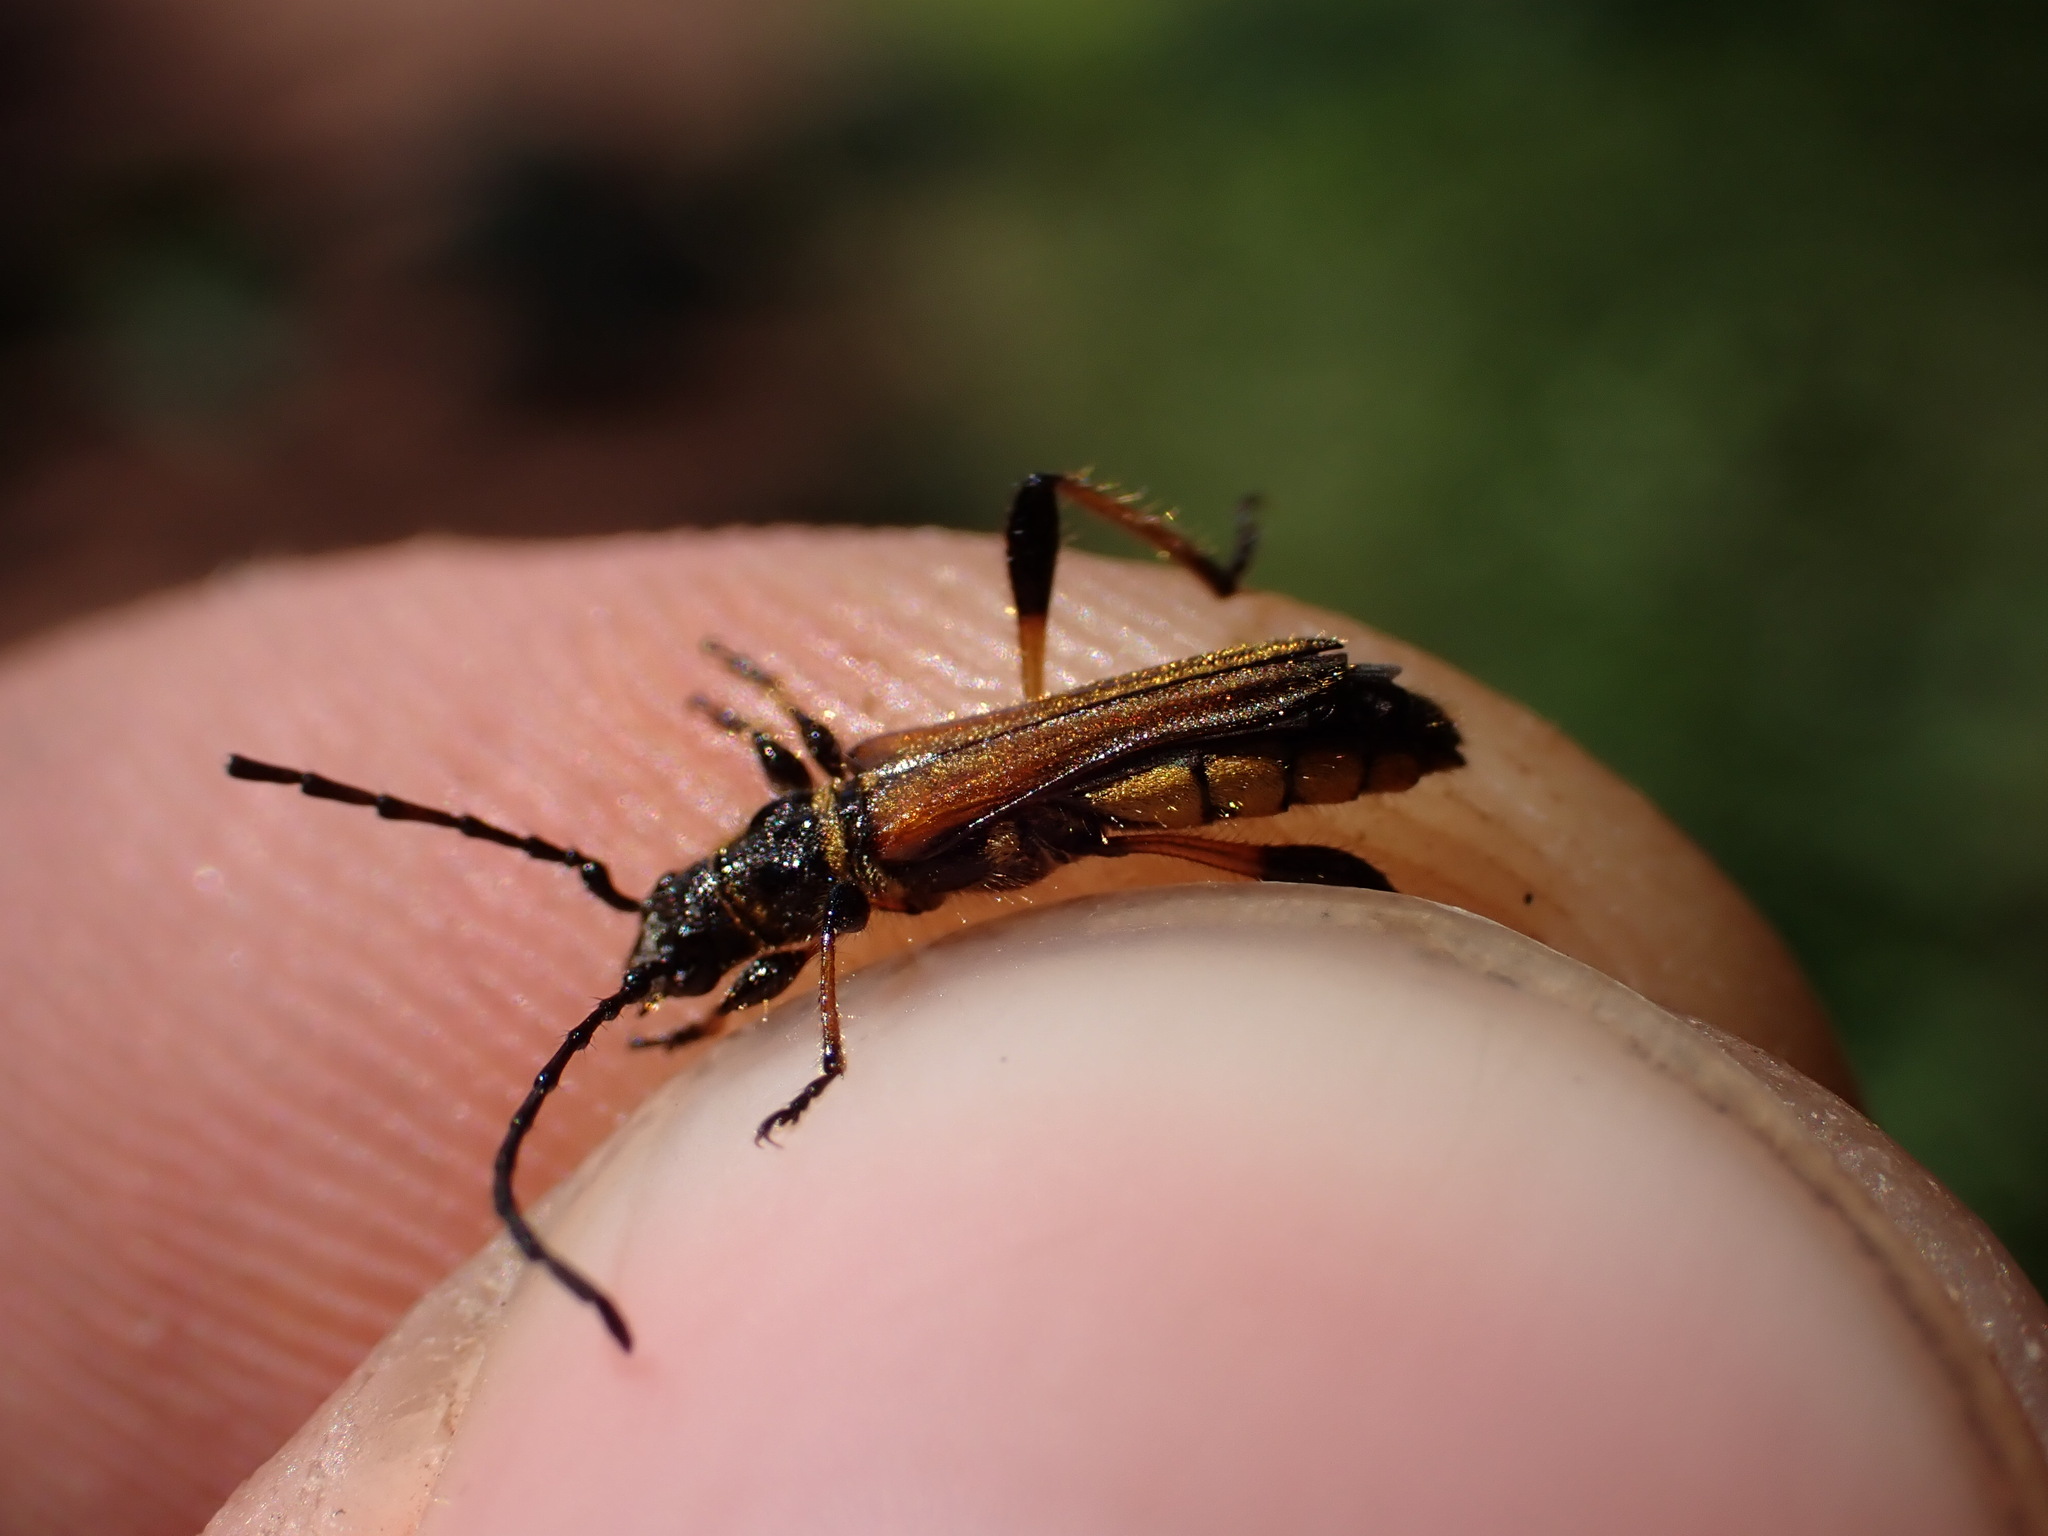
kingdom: Animalia
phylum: Arthropoda
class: Insecta
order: Coleoptera
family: Cerambycidae
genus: Stenopterus
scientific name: Stenopterus ater
